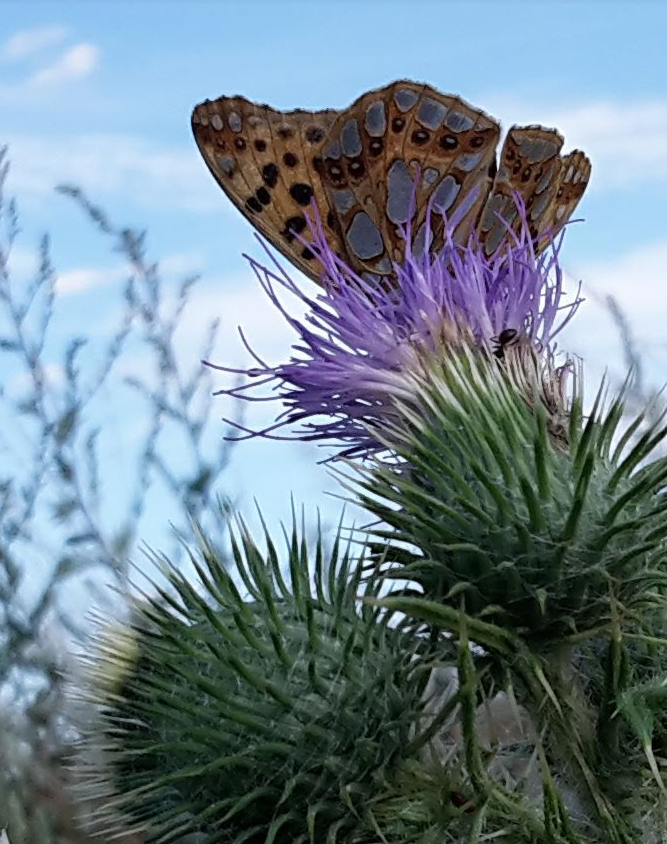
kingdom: Animalia
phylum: Arthropoda
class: Insecta
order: Lepidoptera
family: Nymphalidae
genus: Issoria
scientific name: Issoria lathonia
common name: Queen of spain fritillary
